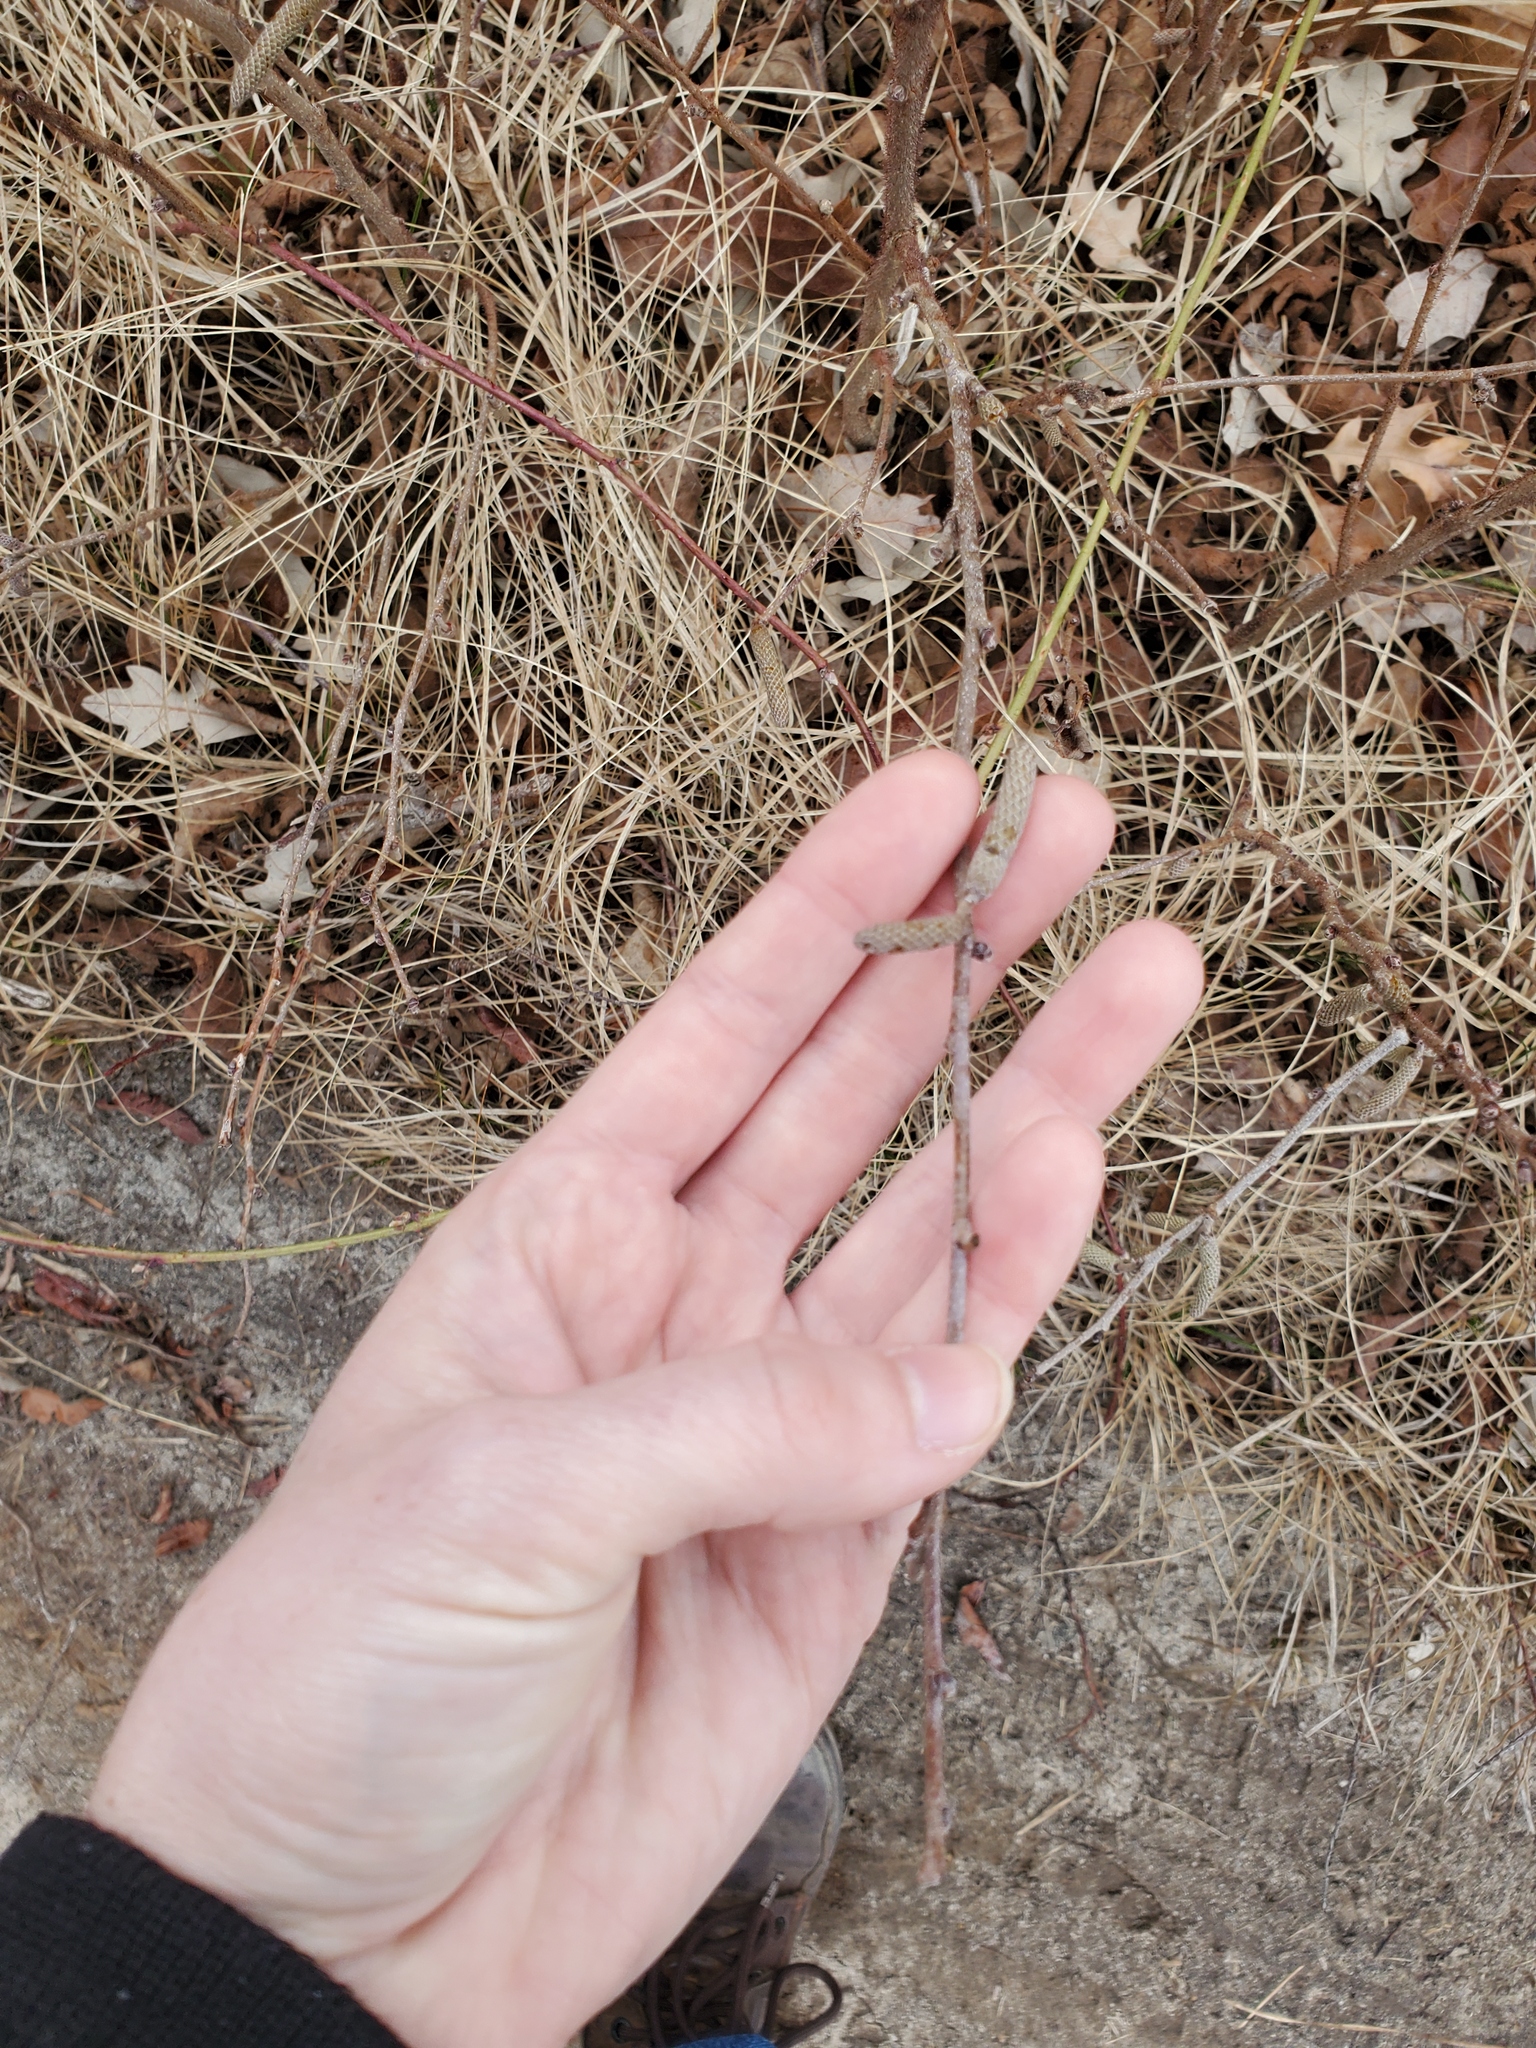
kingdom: Plantae
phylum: Tracheophyta
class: Magnoliopsida
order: Fagales
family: Myricaceae
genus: Comptonia
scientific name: Comptonia peregrina
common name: Sweet-fern
